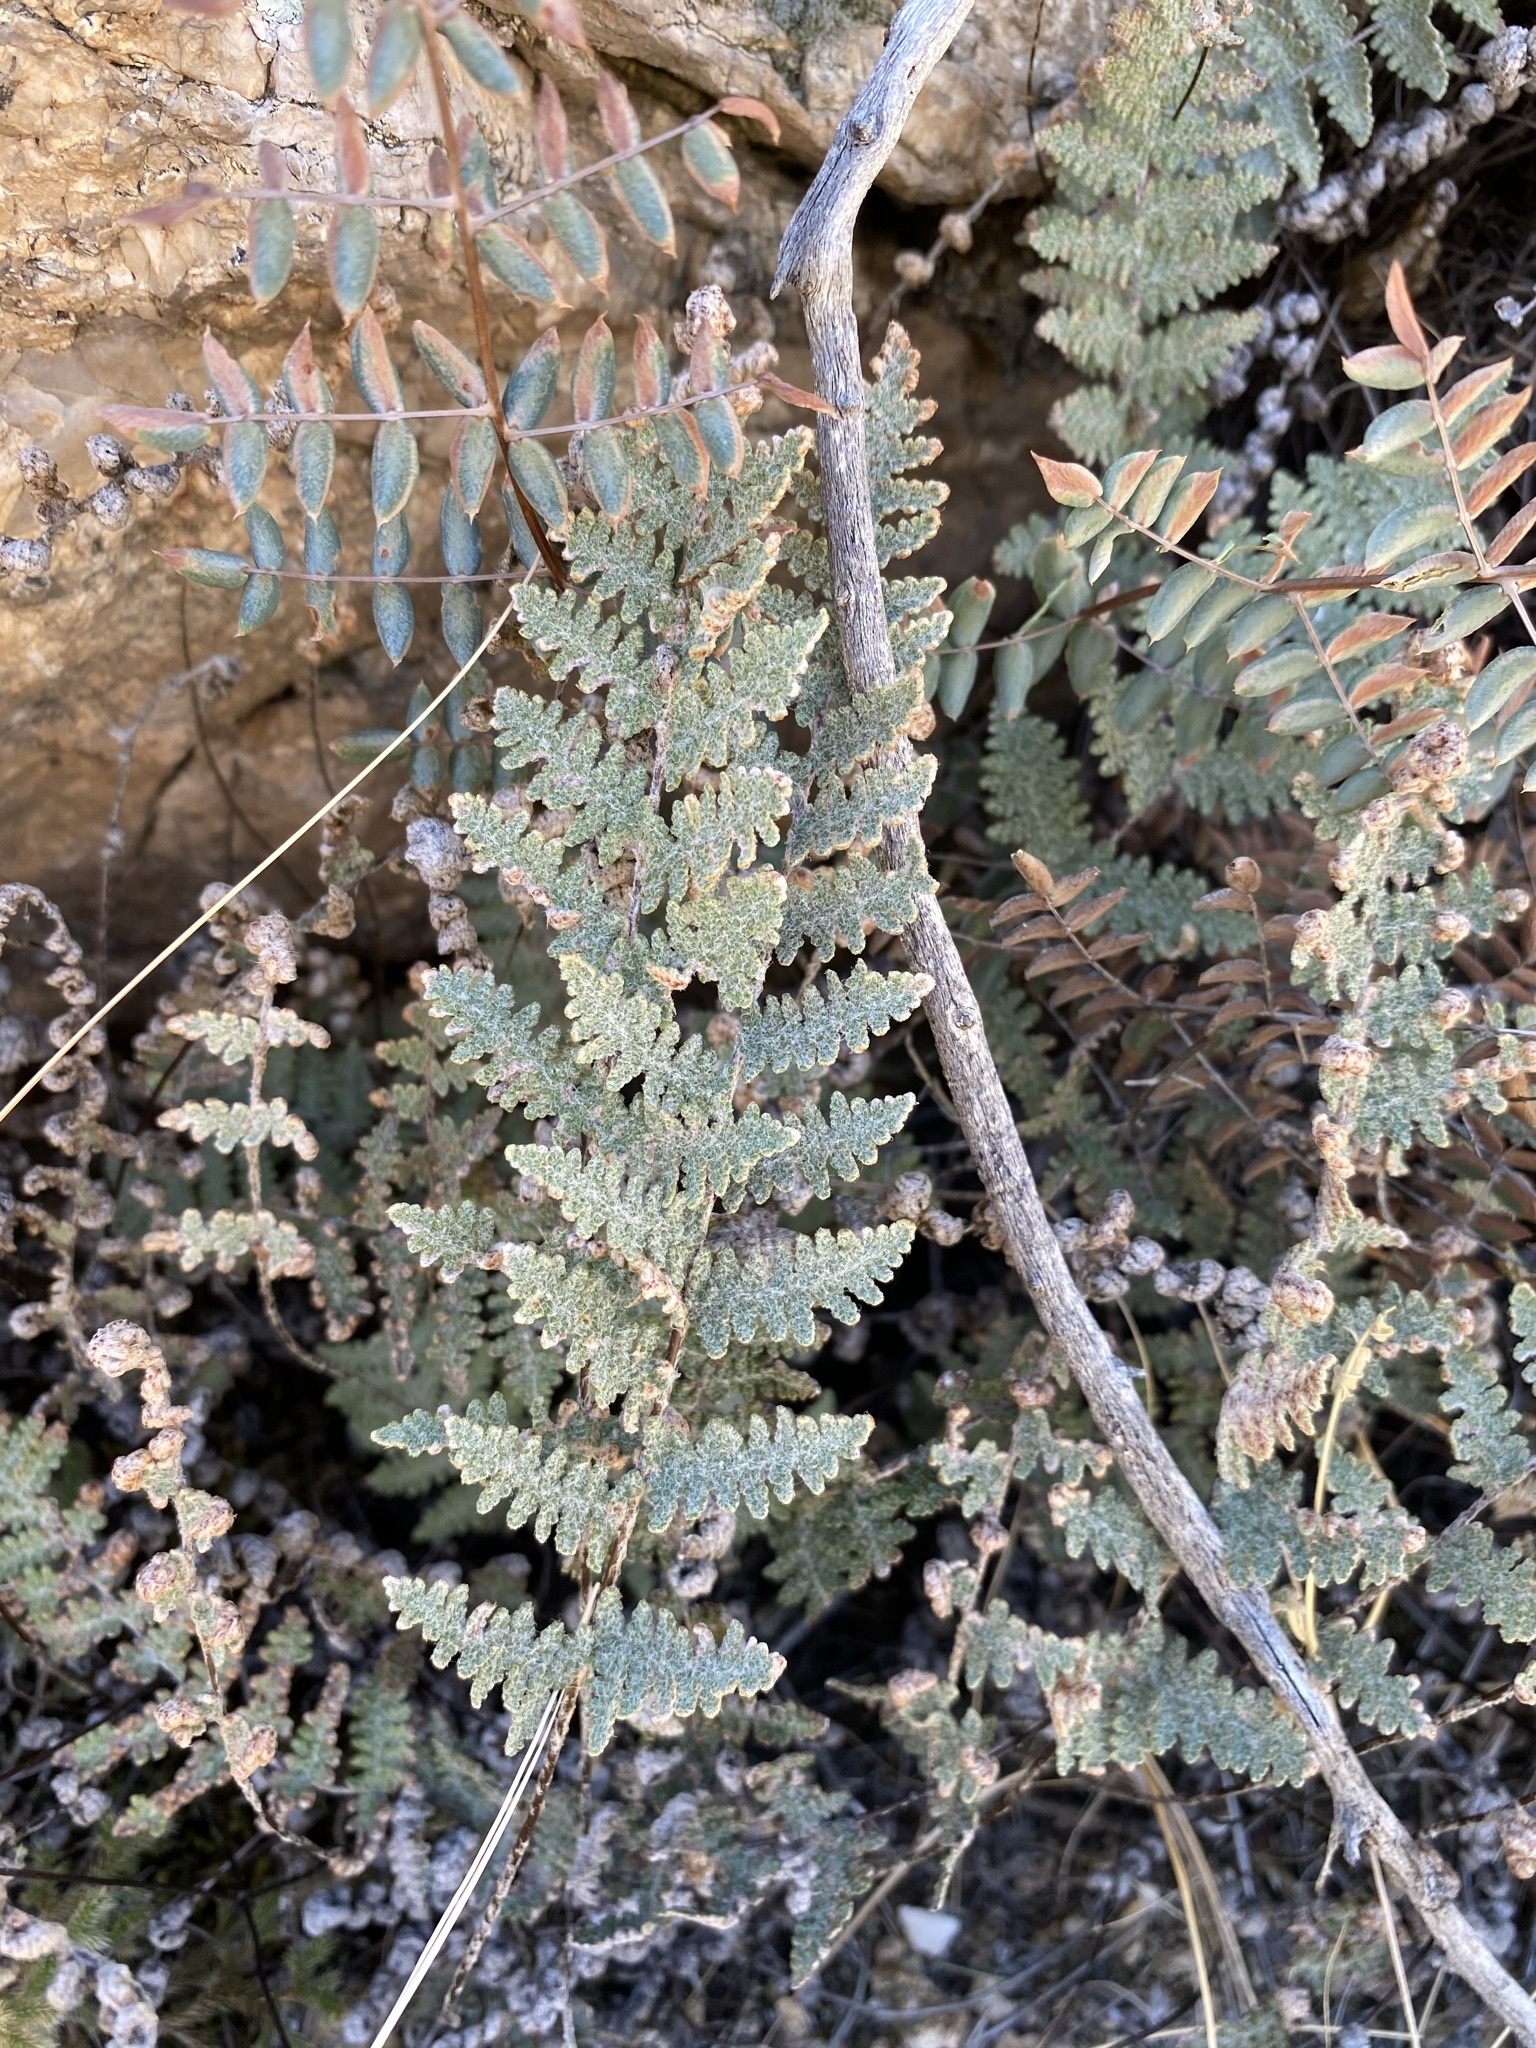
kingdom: Plantae
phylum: Tracheophyta
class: Polypodiopsida
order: Polypodiales
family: Pteridaceae
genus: Myriopteris
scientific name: Myriopteris lindheimeri
